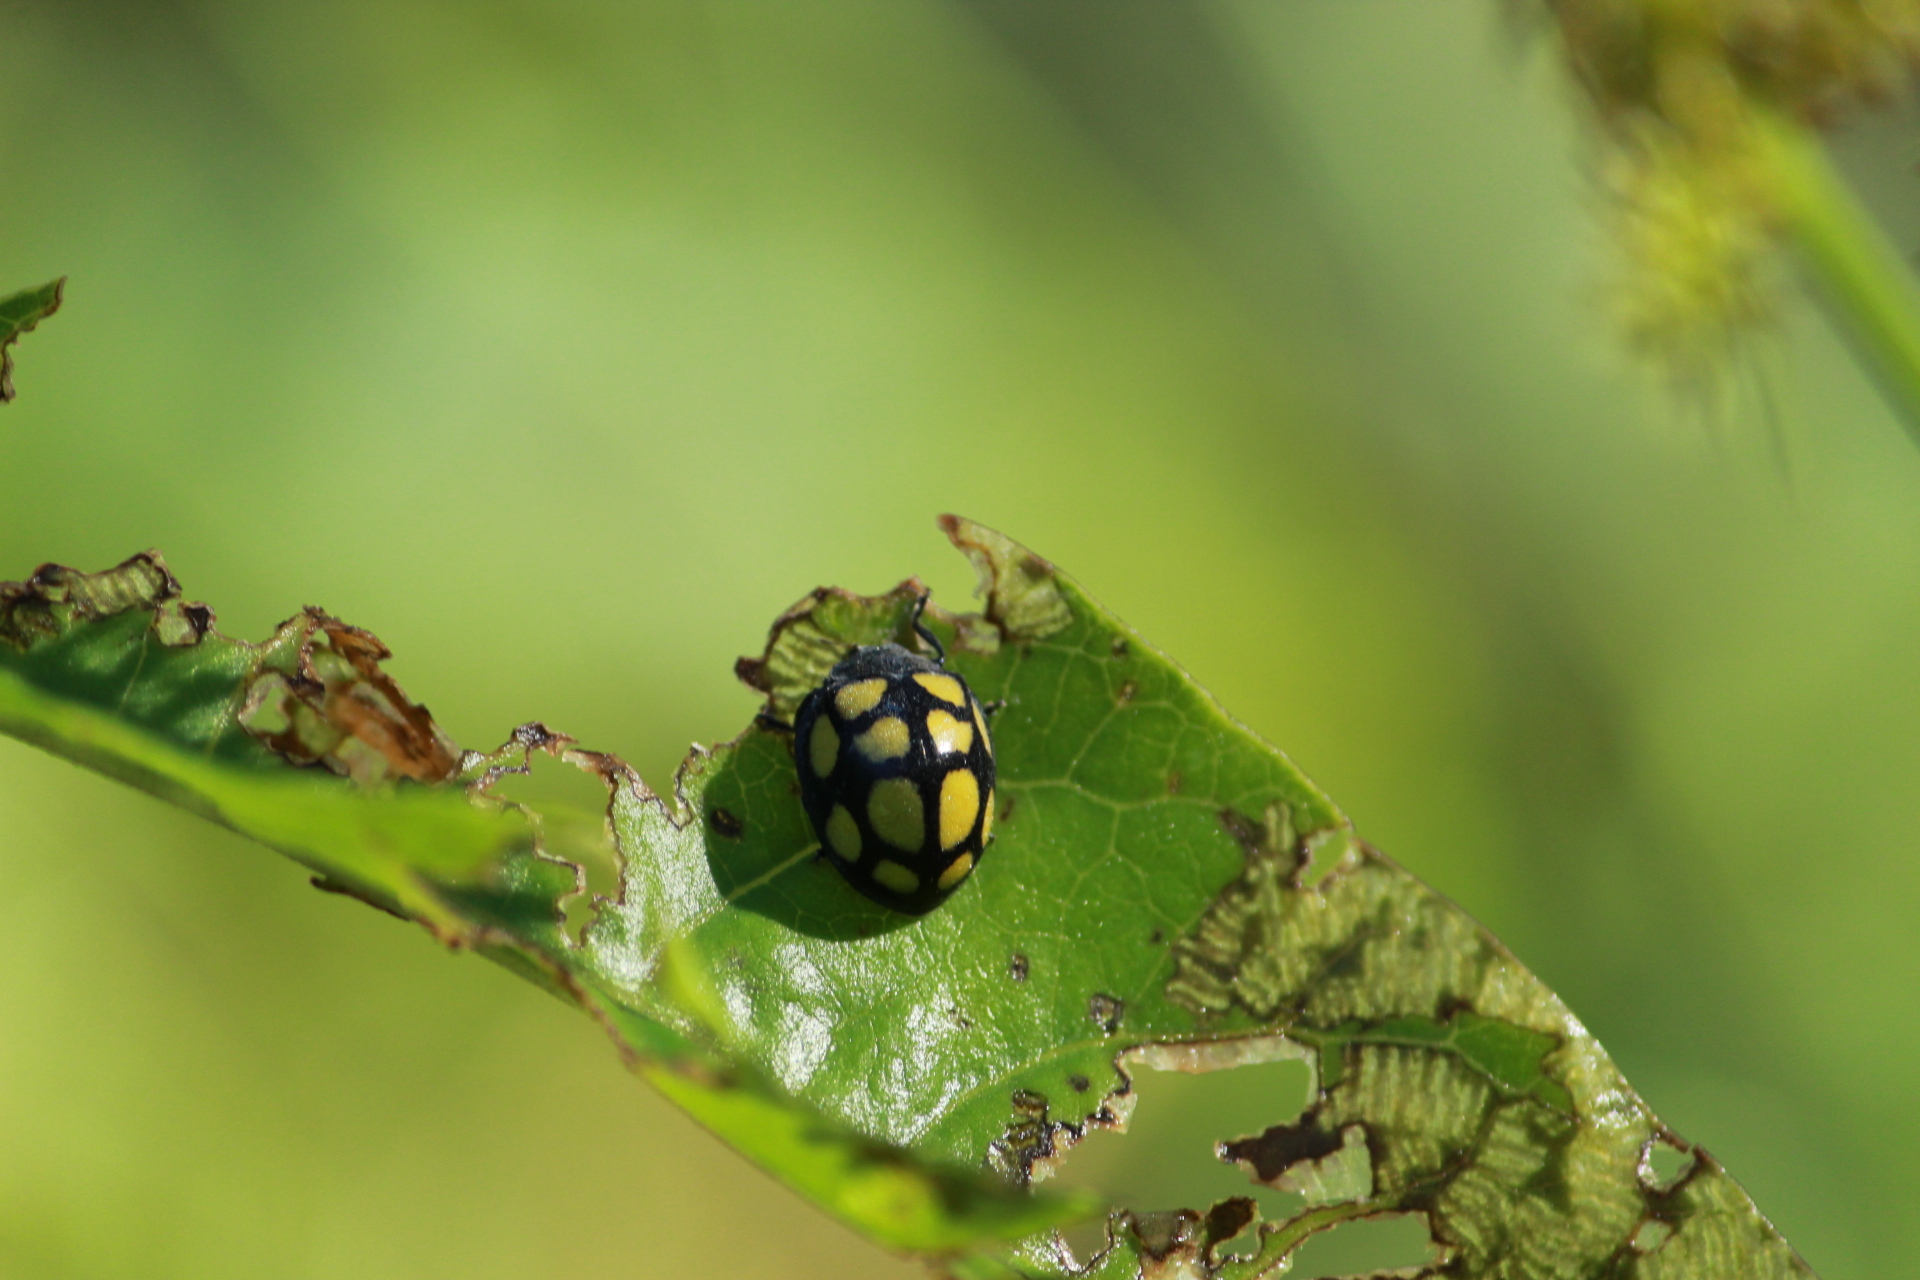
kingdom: Animalia
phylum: Arthropoda
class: Insecta
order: Coleoptera
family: Coccinellidae
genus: Epilachna
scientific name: Epilachna
